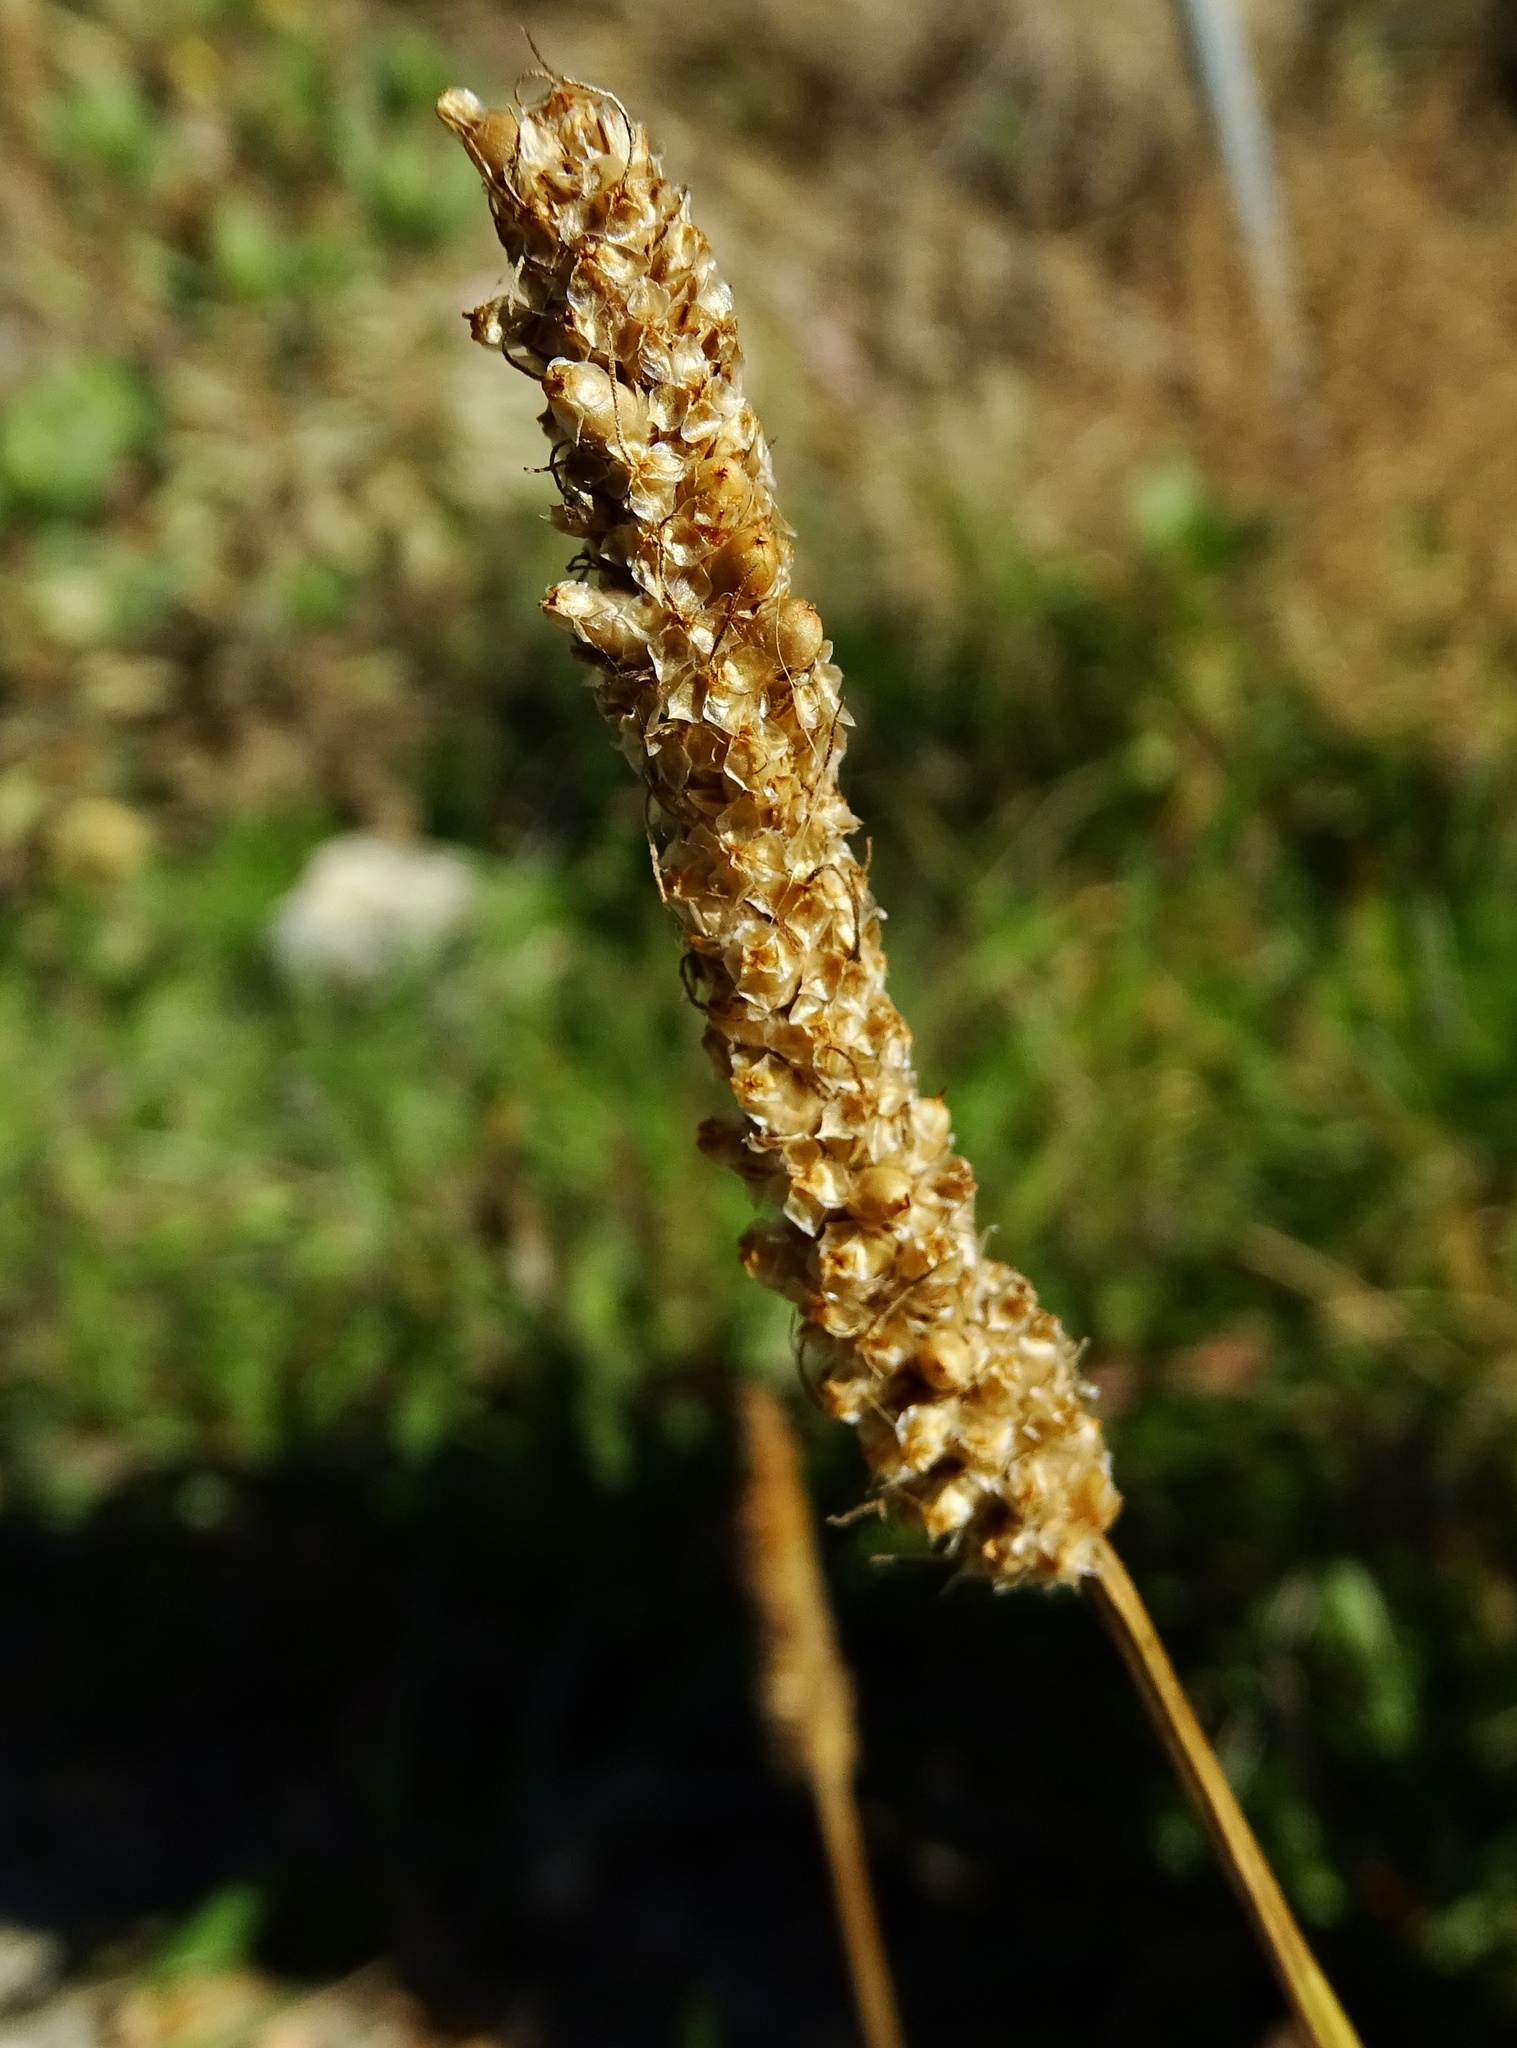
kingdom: Plantae
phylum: Tracheophyta
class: Magnoliopsida
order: Lamiales
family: Plantaginaceae
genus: Plantago
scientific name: Plantago lanceolata
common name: Ribwort plantain
